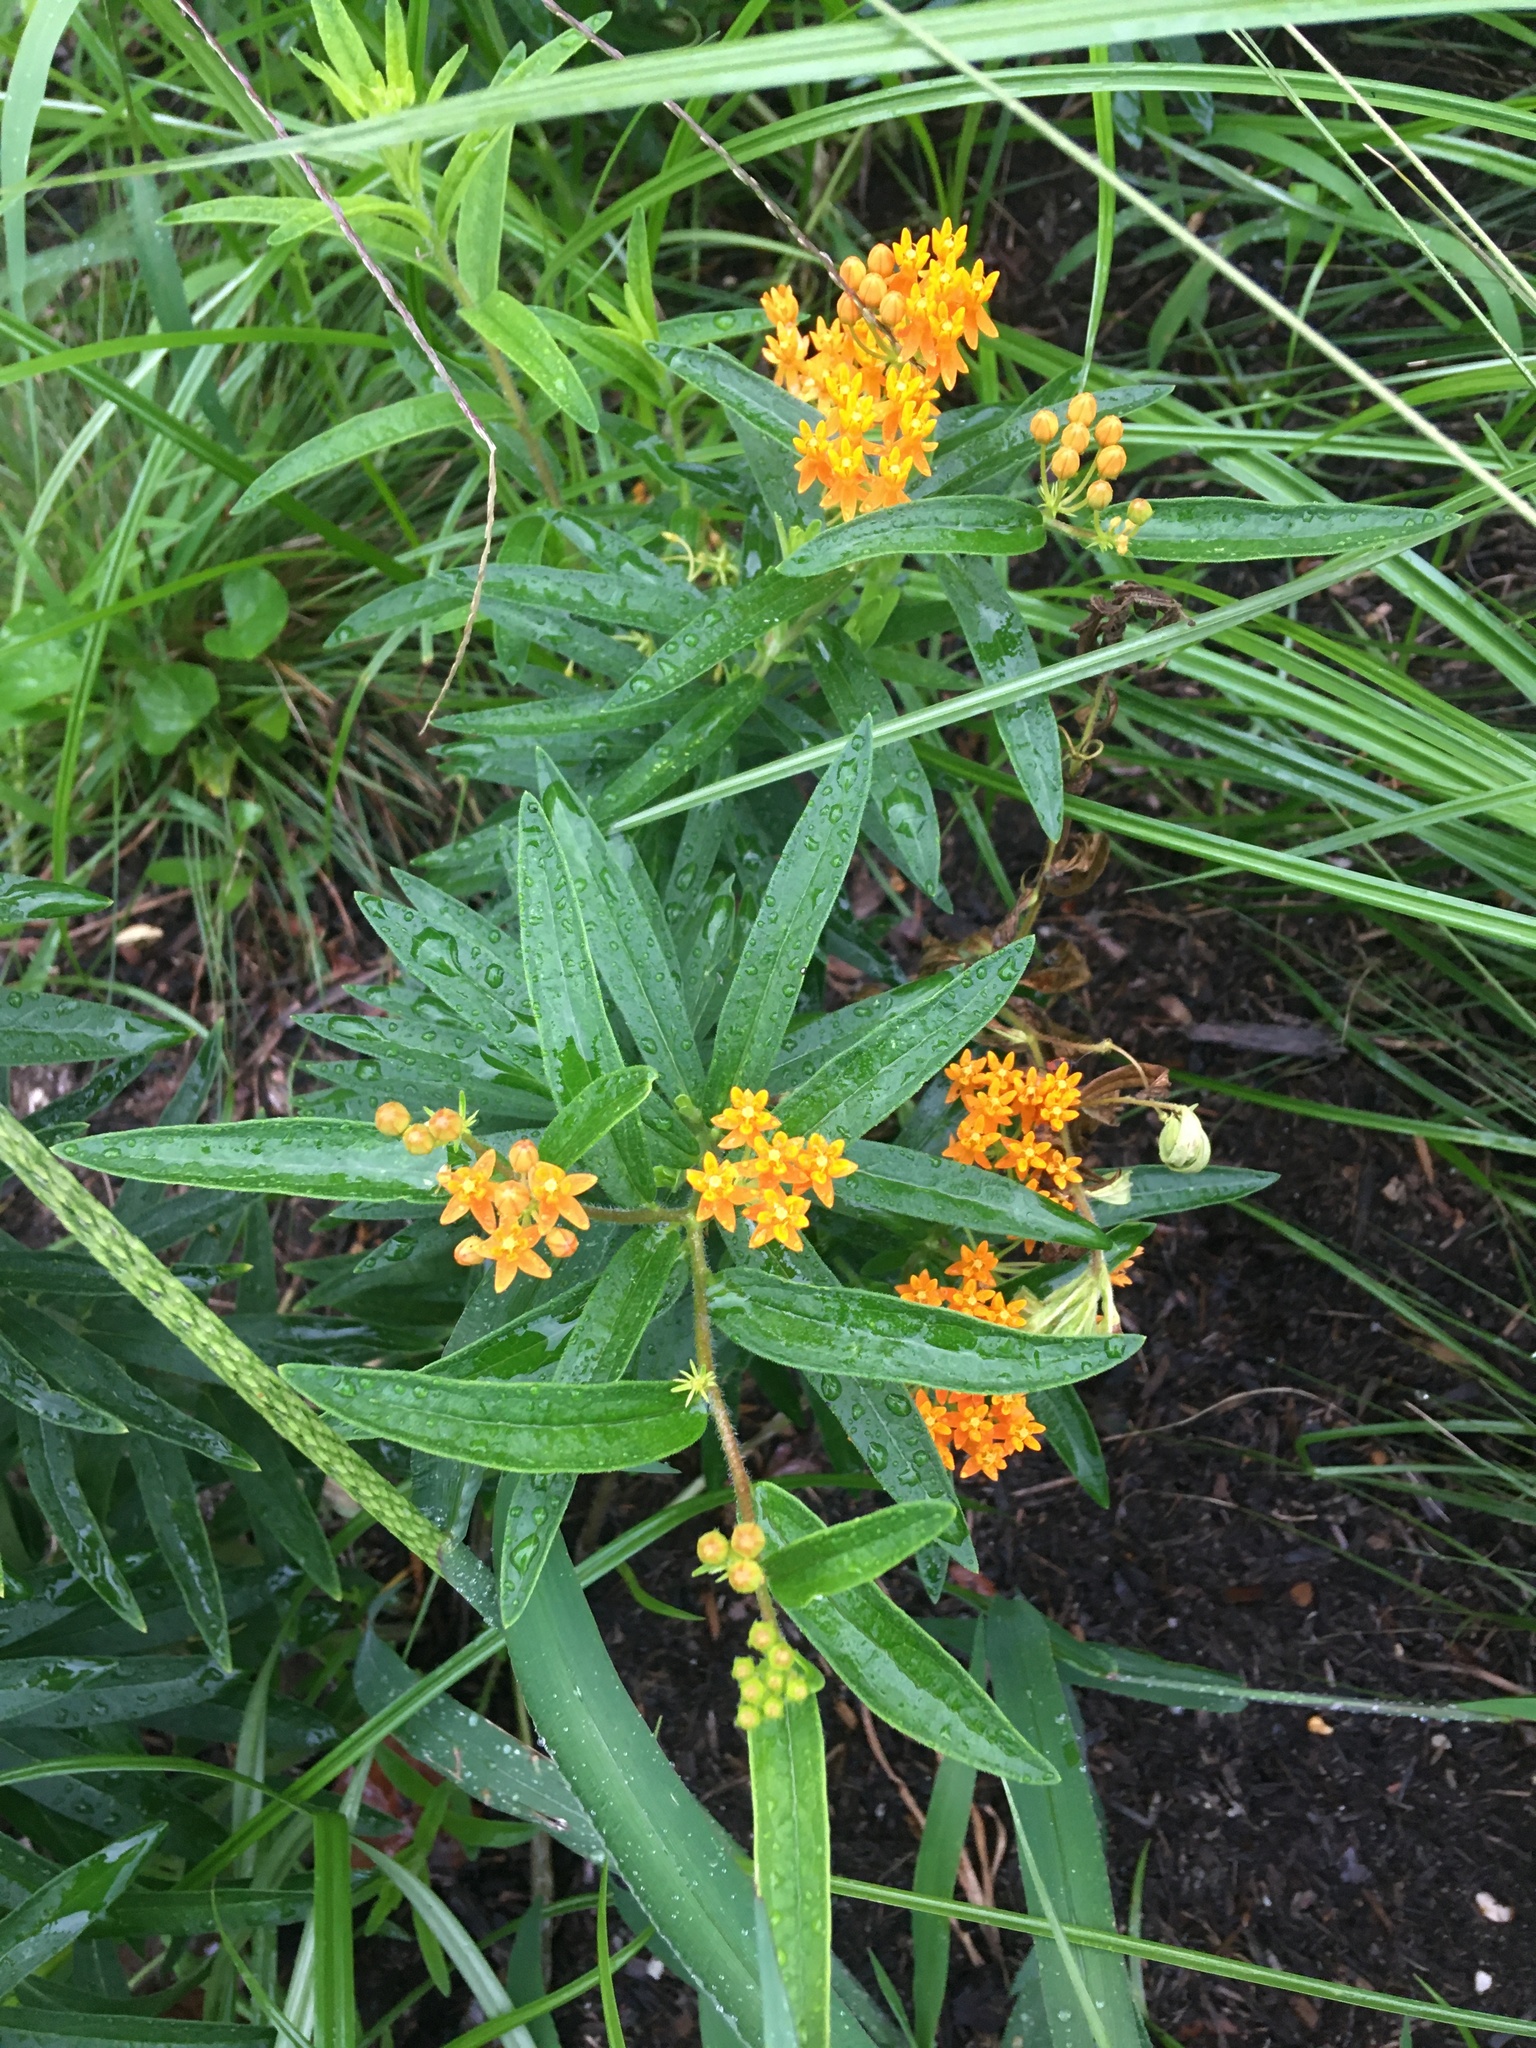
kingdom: Plantae
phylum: Tracheophyta
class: Magnoliopsida
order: Gentianales
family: Apocynaceae
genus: Asclepias
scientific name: Asclepias tuberosa
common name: Butterfly milkweed
